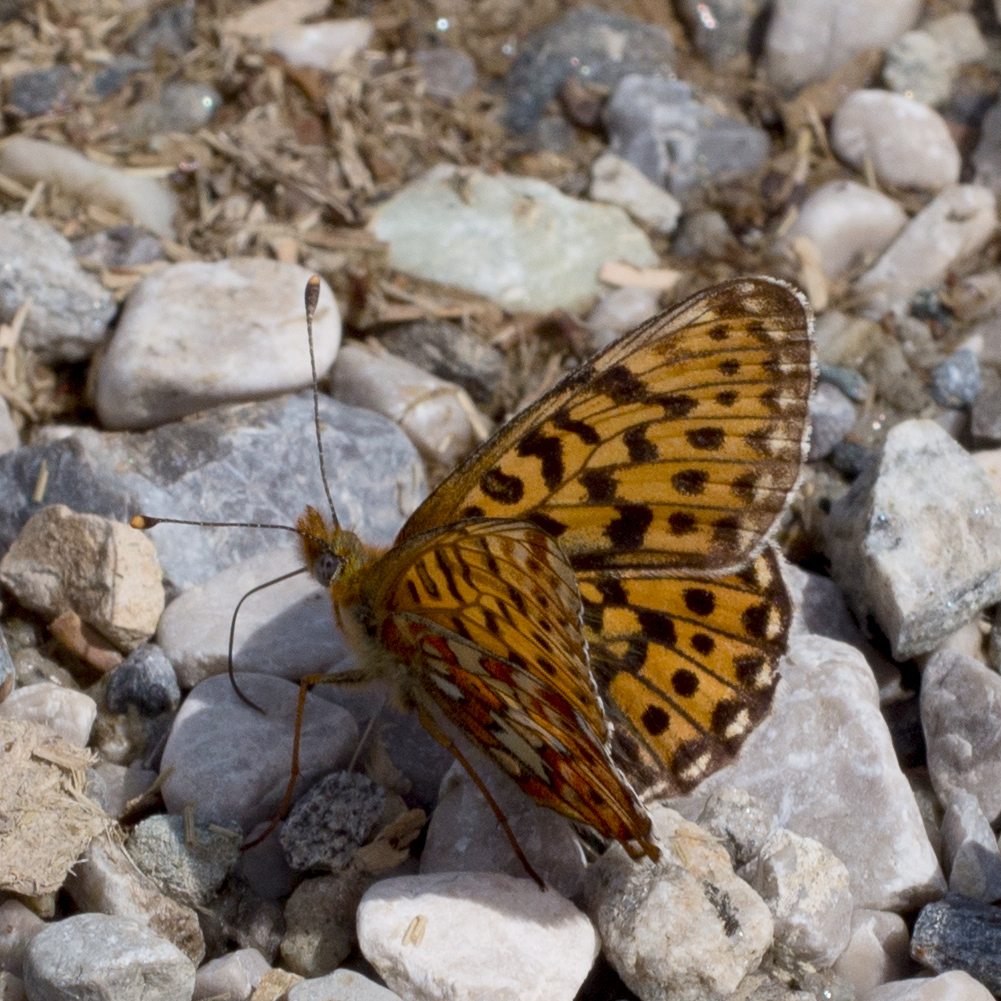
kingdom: Animalia
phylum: Arthropoda
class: Insecta
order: Lepidoptera
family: Nymphalidae
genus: Clossiana
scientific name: Clossiana euphrosyne
